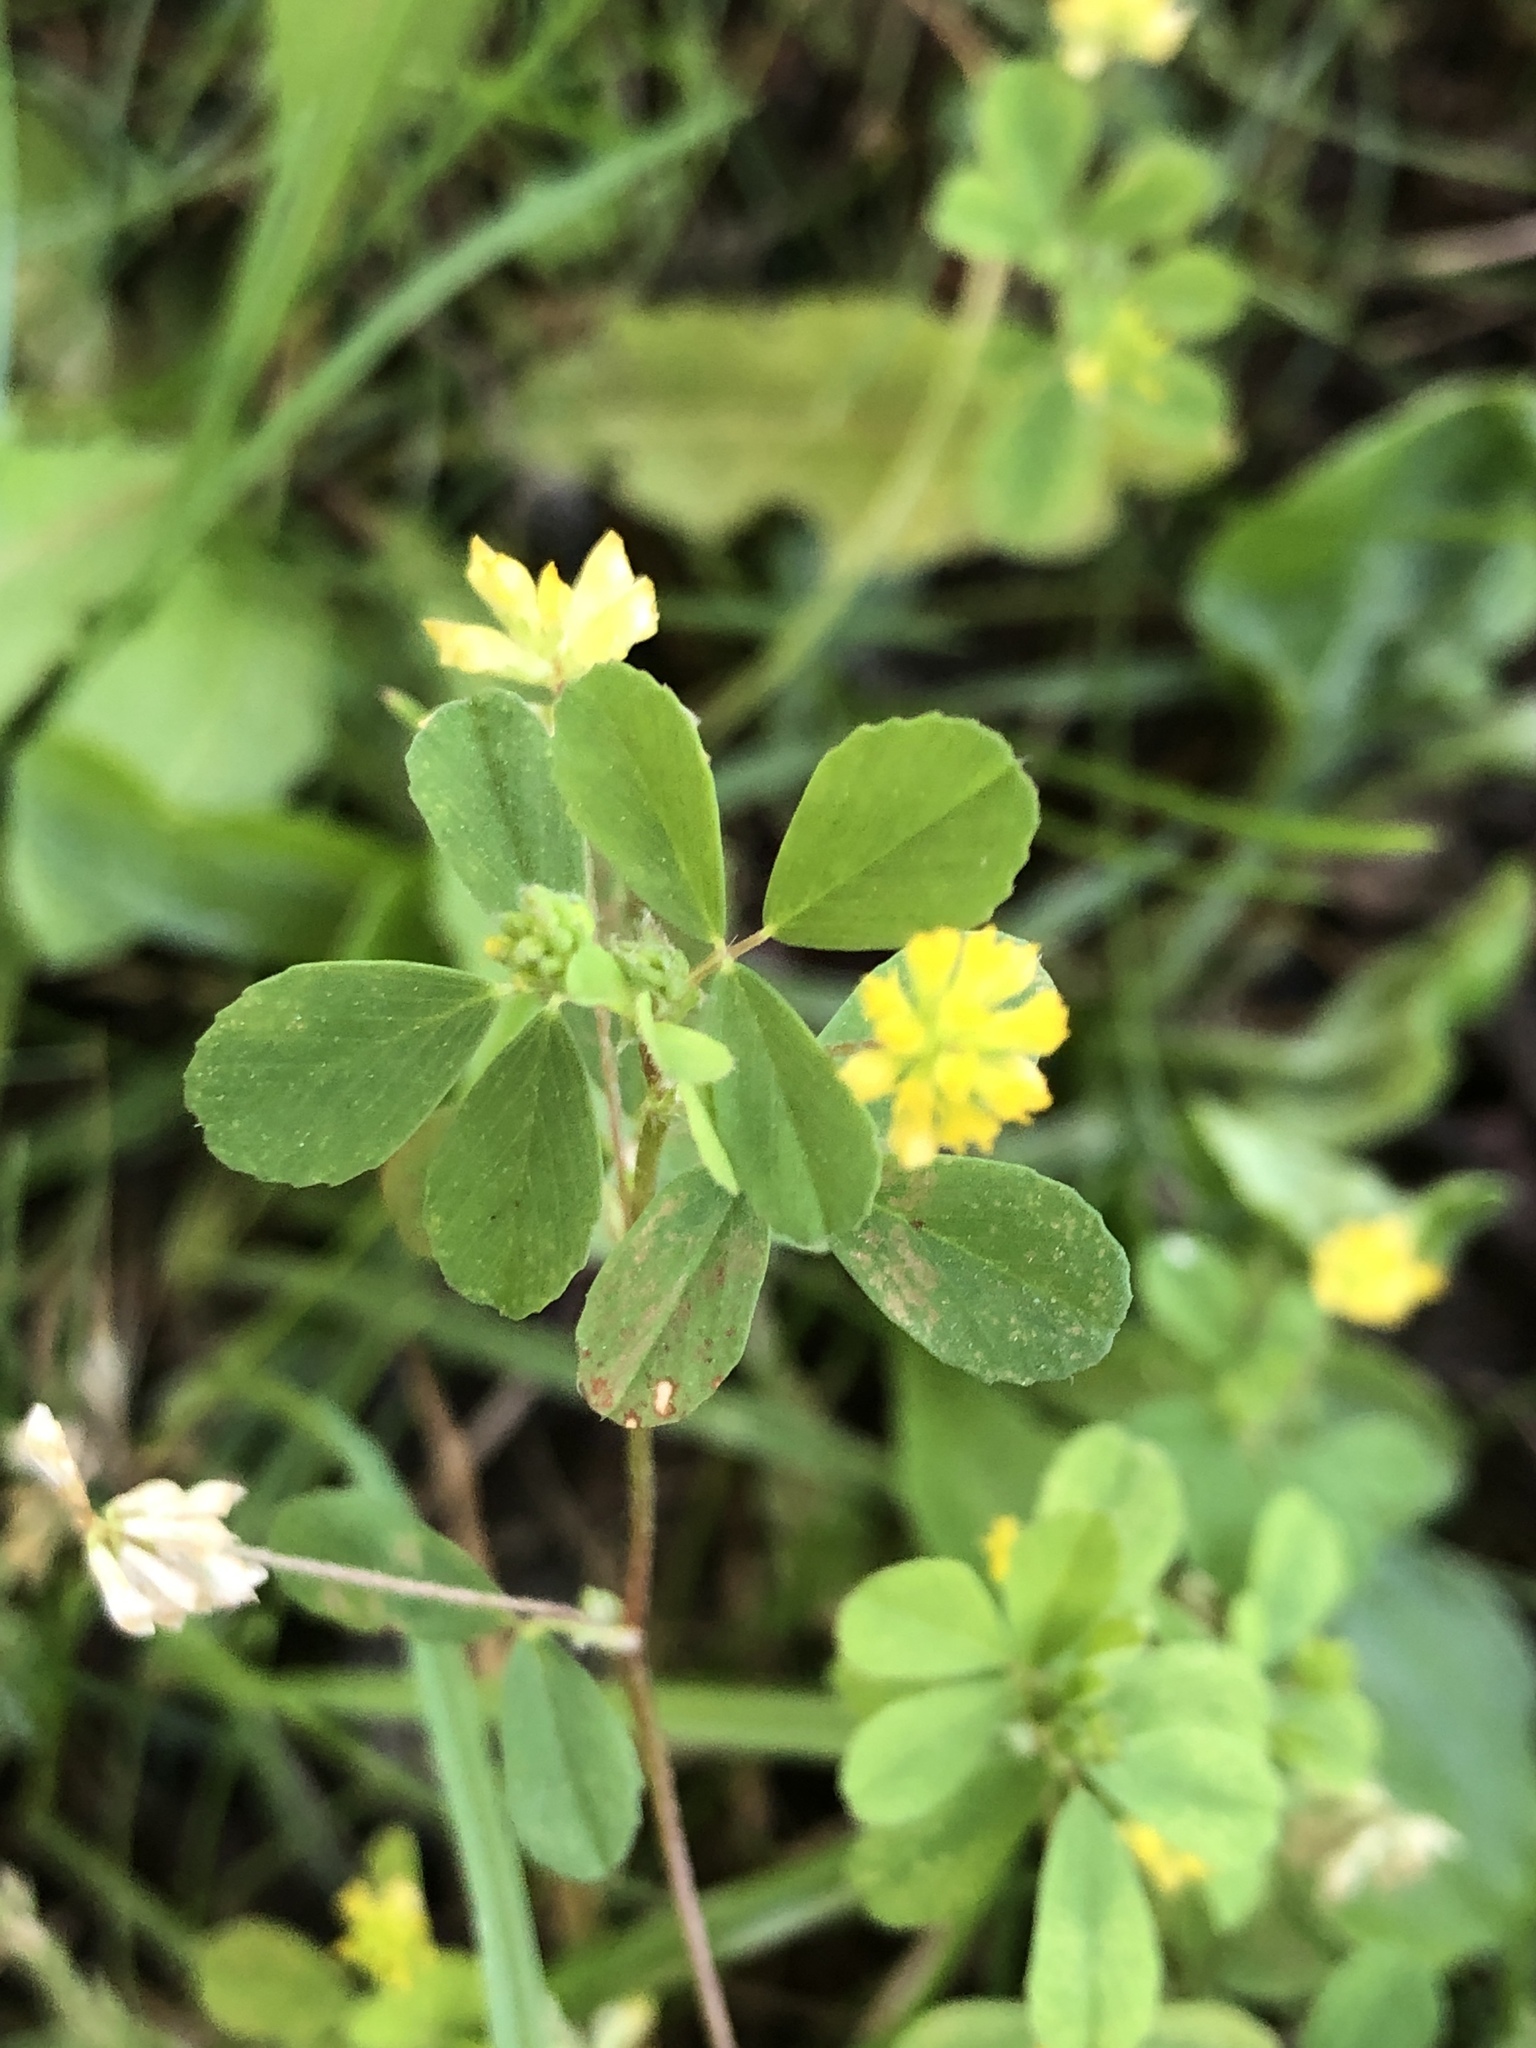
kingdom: Plantae
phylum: Tracheophyta
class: Magnoliopsida
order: Fabales
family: Fabaceae
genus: Trifolium
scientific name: Trifolium dubium
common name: Suckling clover
